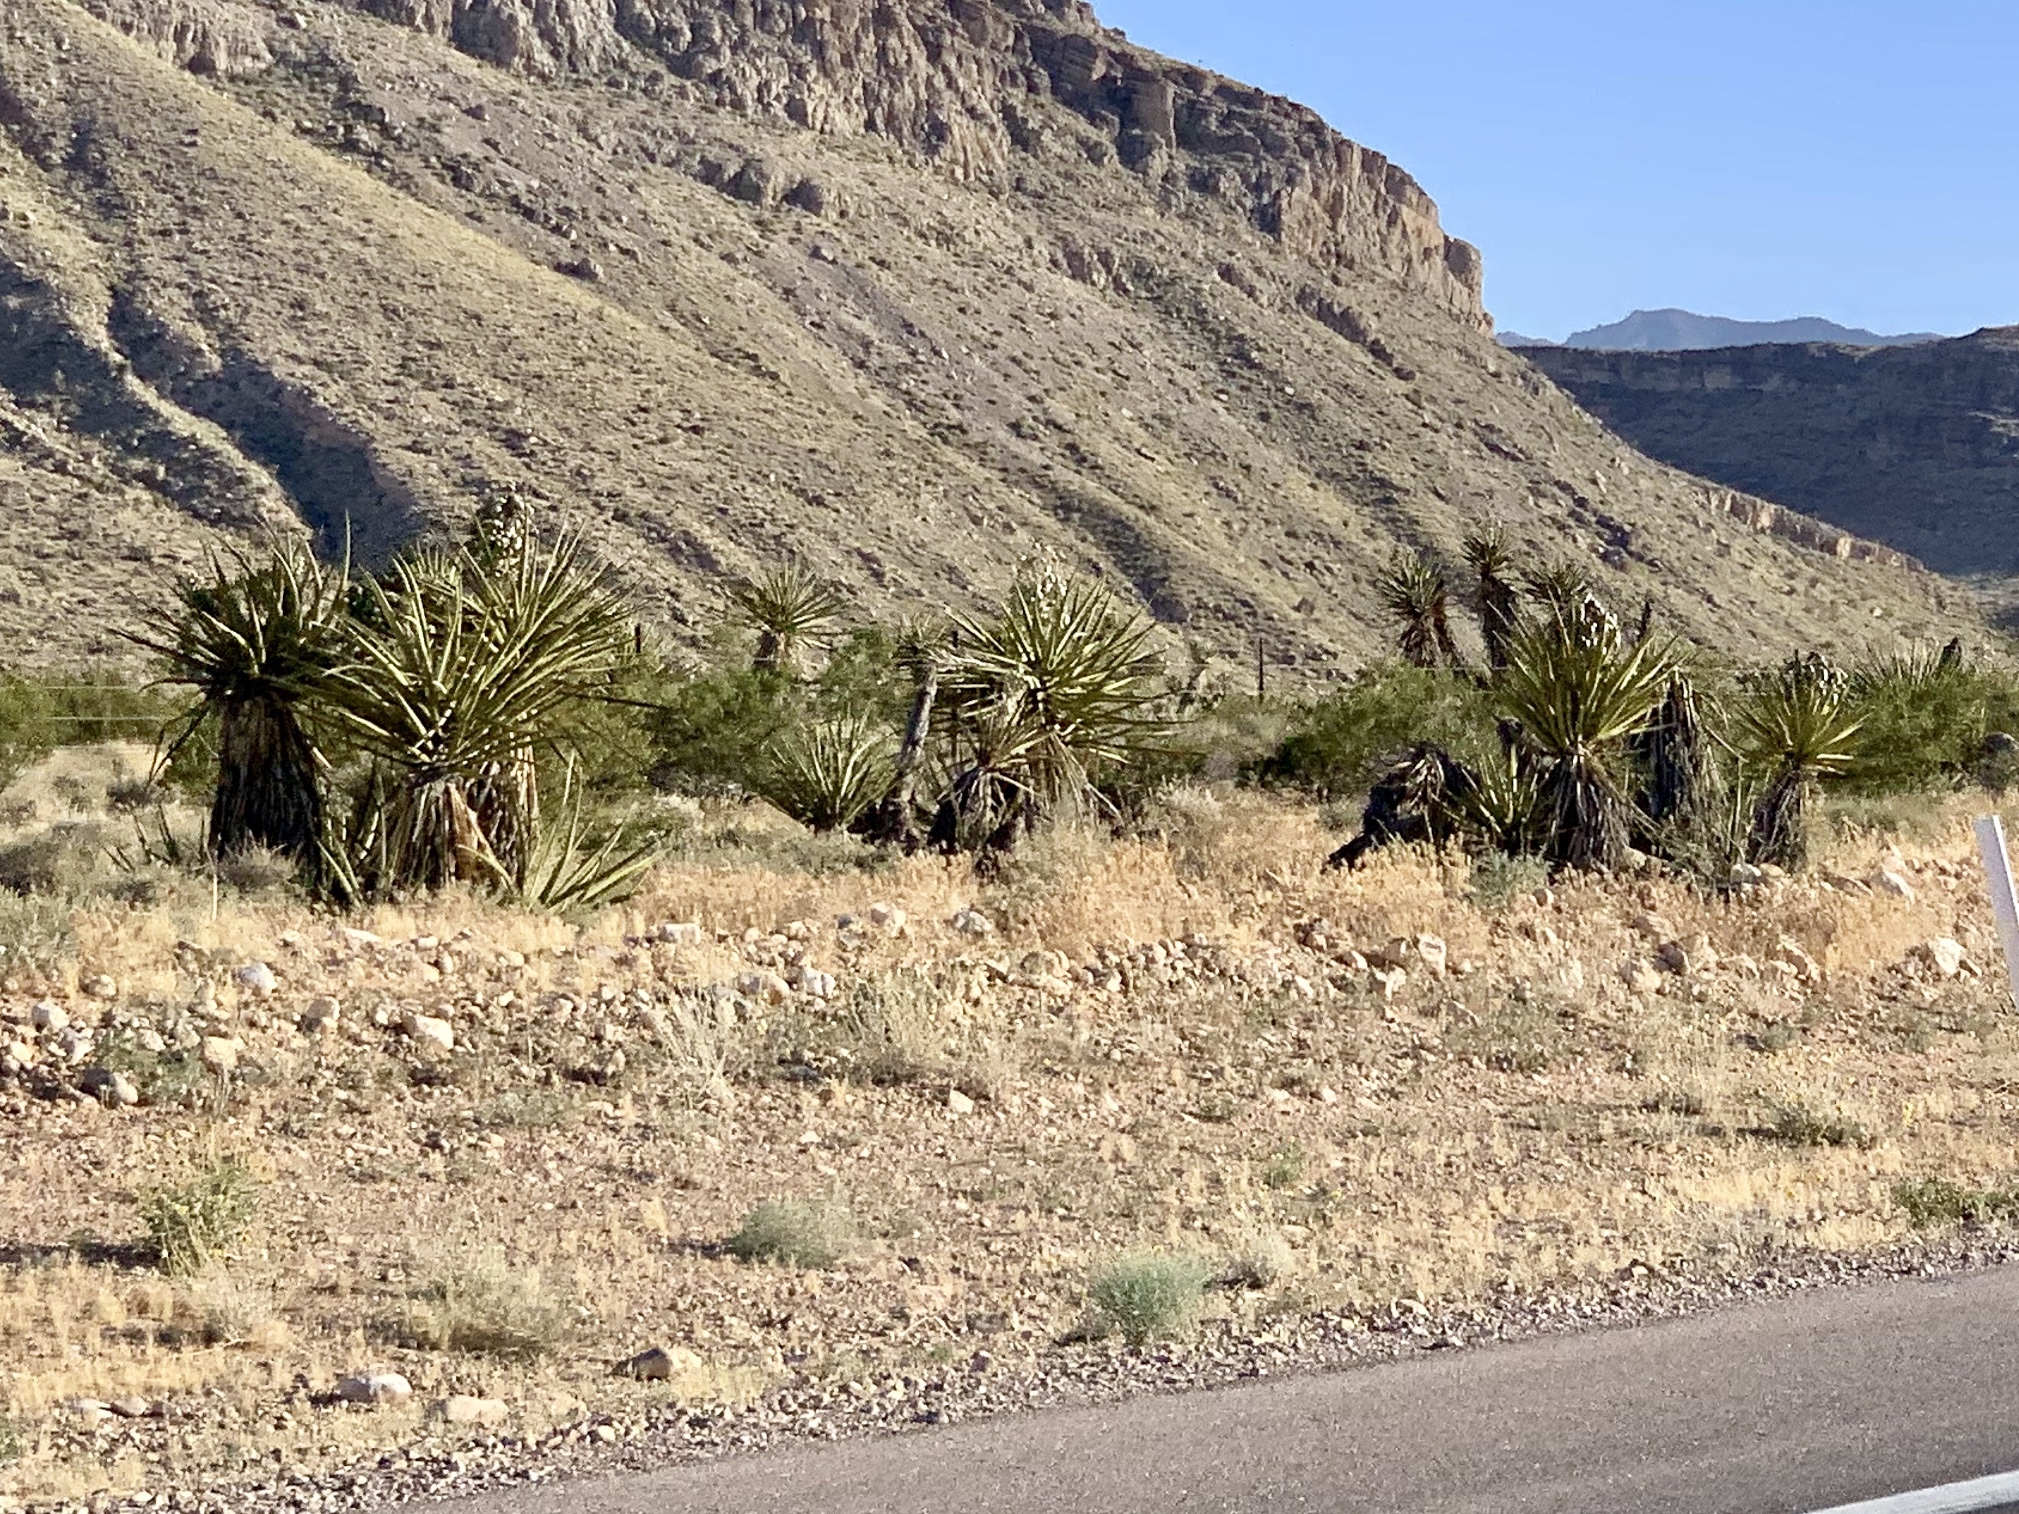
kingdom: Plantae
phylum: Tracheophyta
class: Liliopsida
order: Asparagales
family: Asparagaceae
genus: Yucca
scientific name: Yucca schidigera
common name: Mojave yucca
